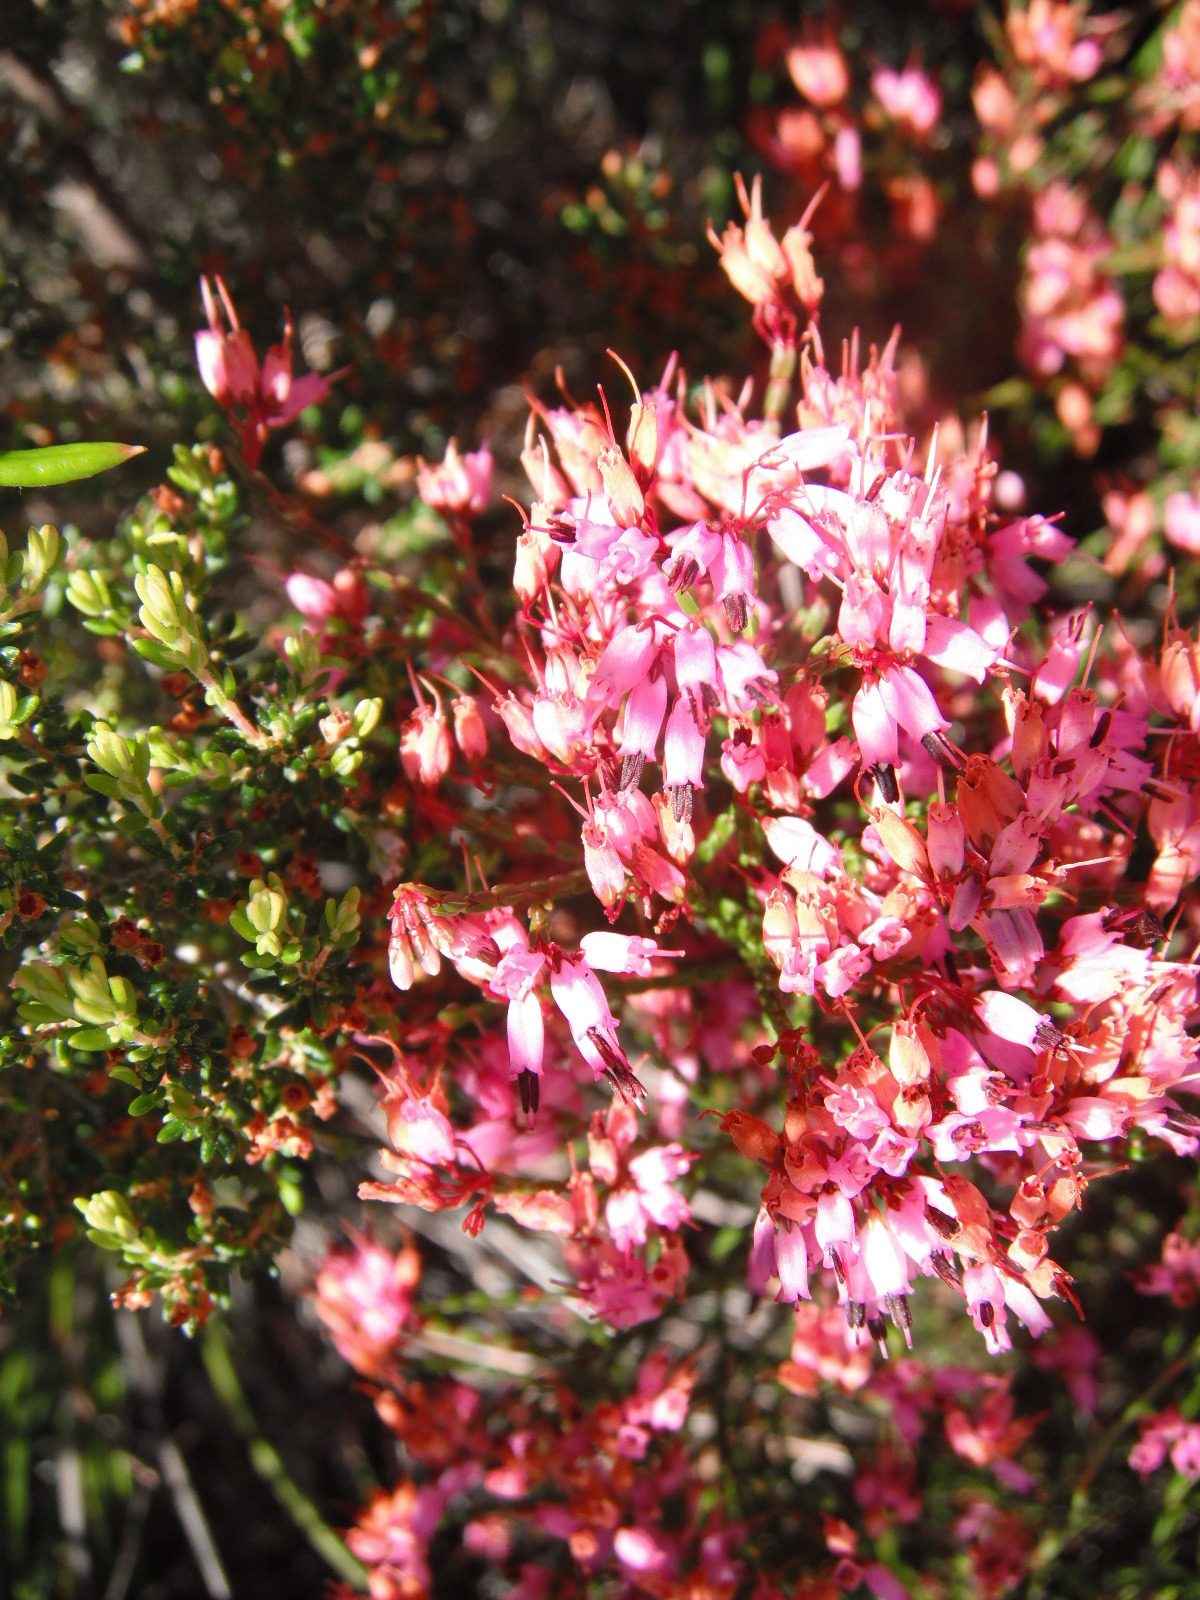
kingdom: Plantae
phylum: Tracheophyta
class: Magnoliopsida
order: Ericales
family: Ericaceae
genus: Erica
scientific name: Erica equisetifolia
